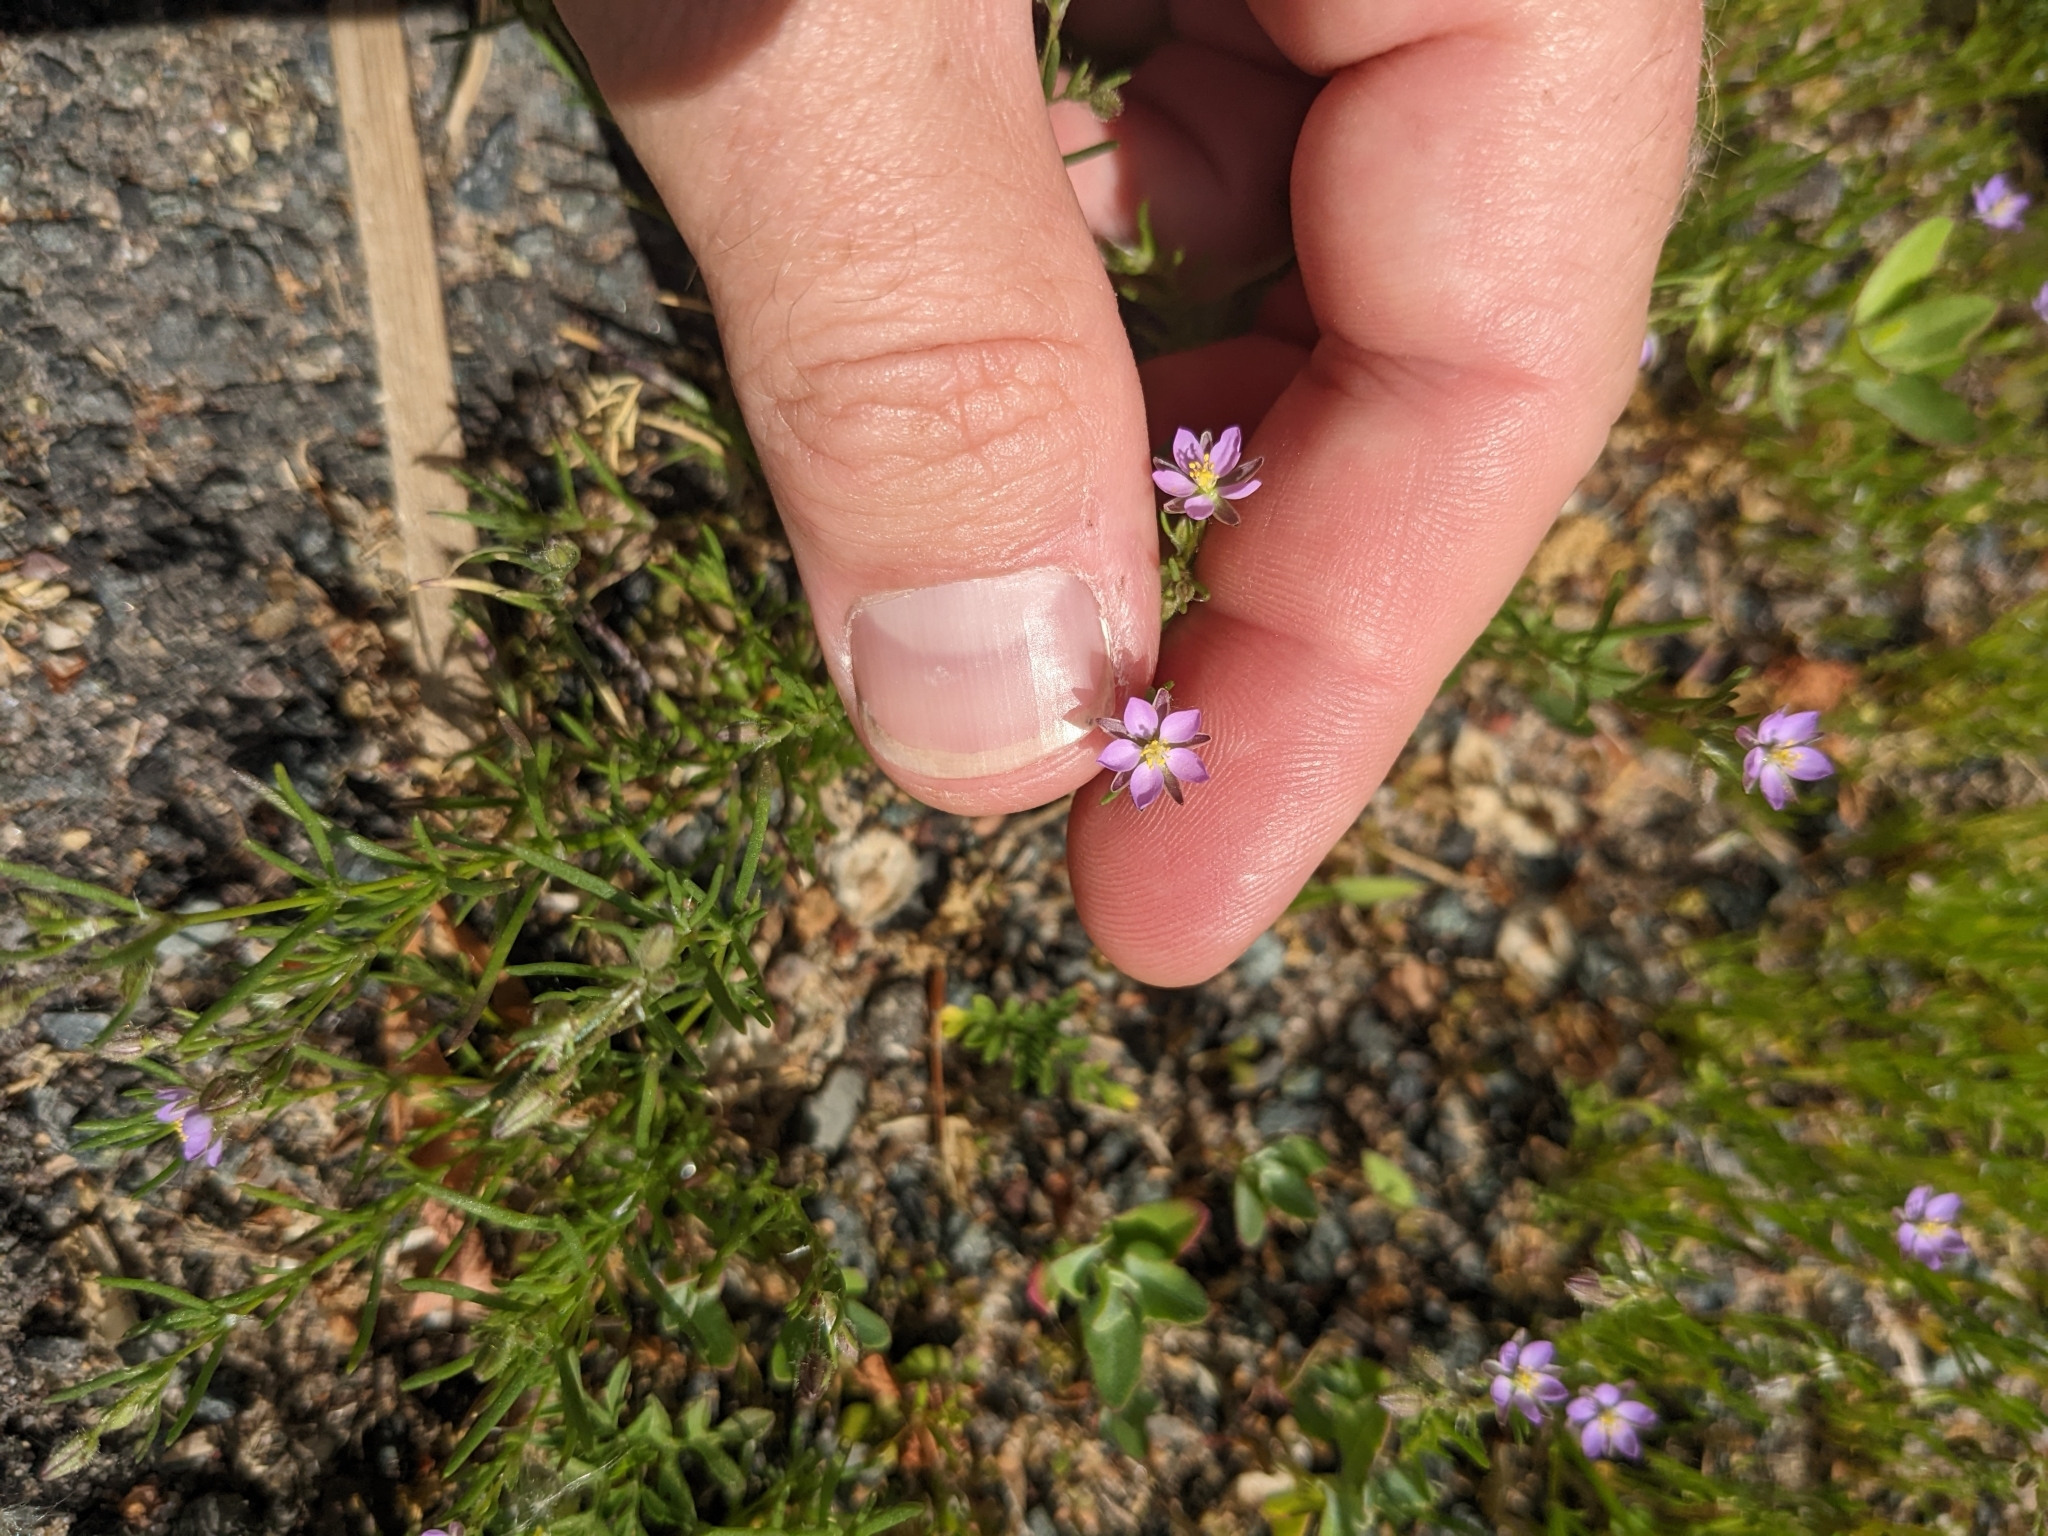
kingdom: Plantae
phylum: Tracheophyta
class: Magnoliopsida
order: Caryophyllales
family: Caryophyllaceae
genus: Spergularia
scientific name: Spergularia rubra
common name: Red sand-spurrey
